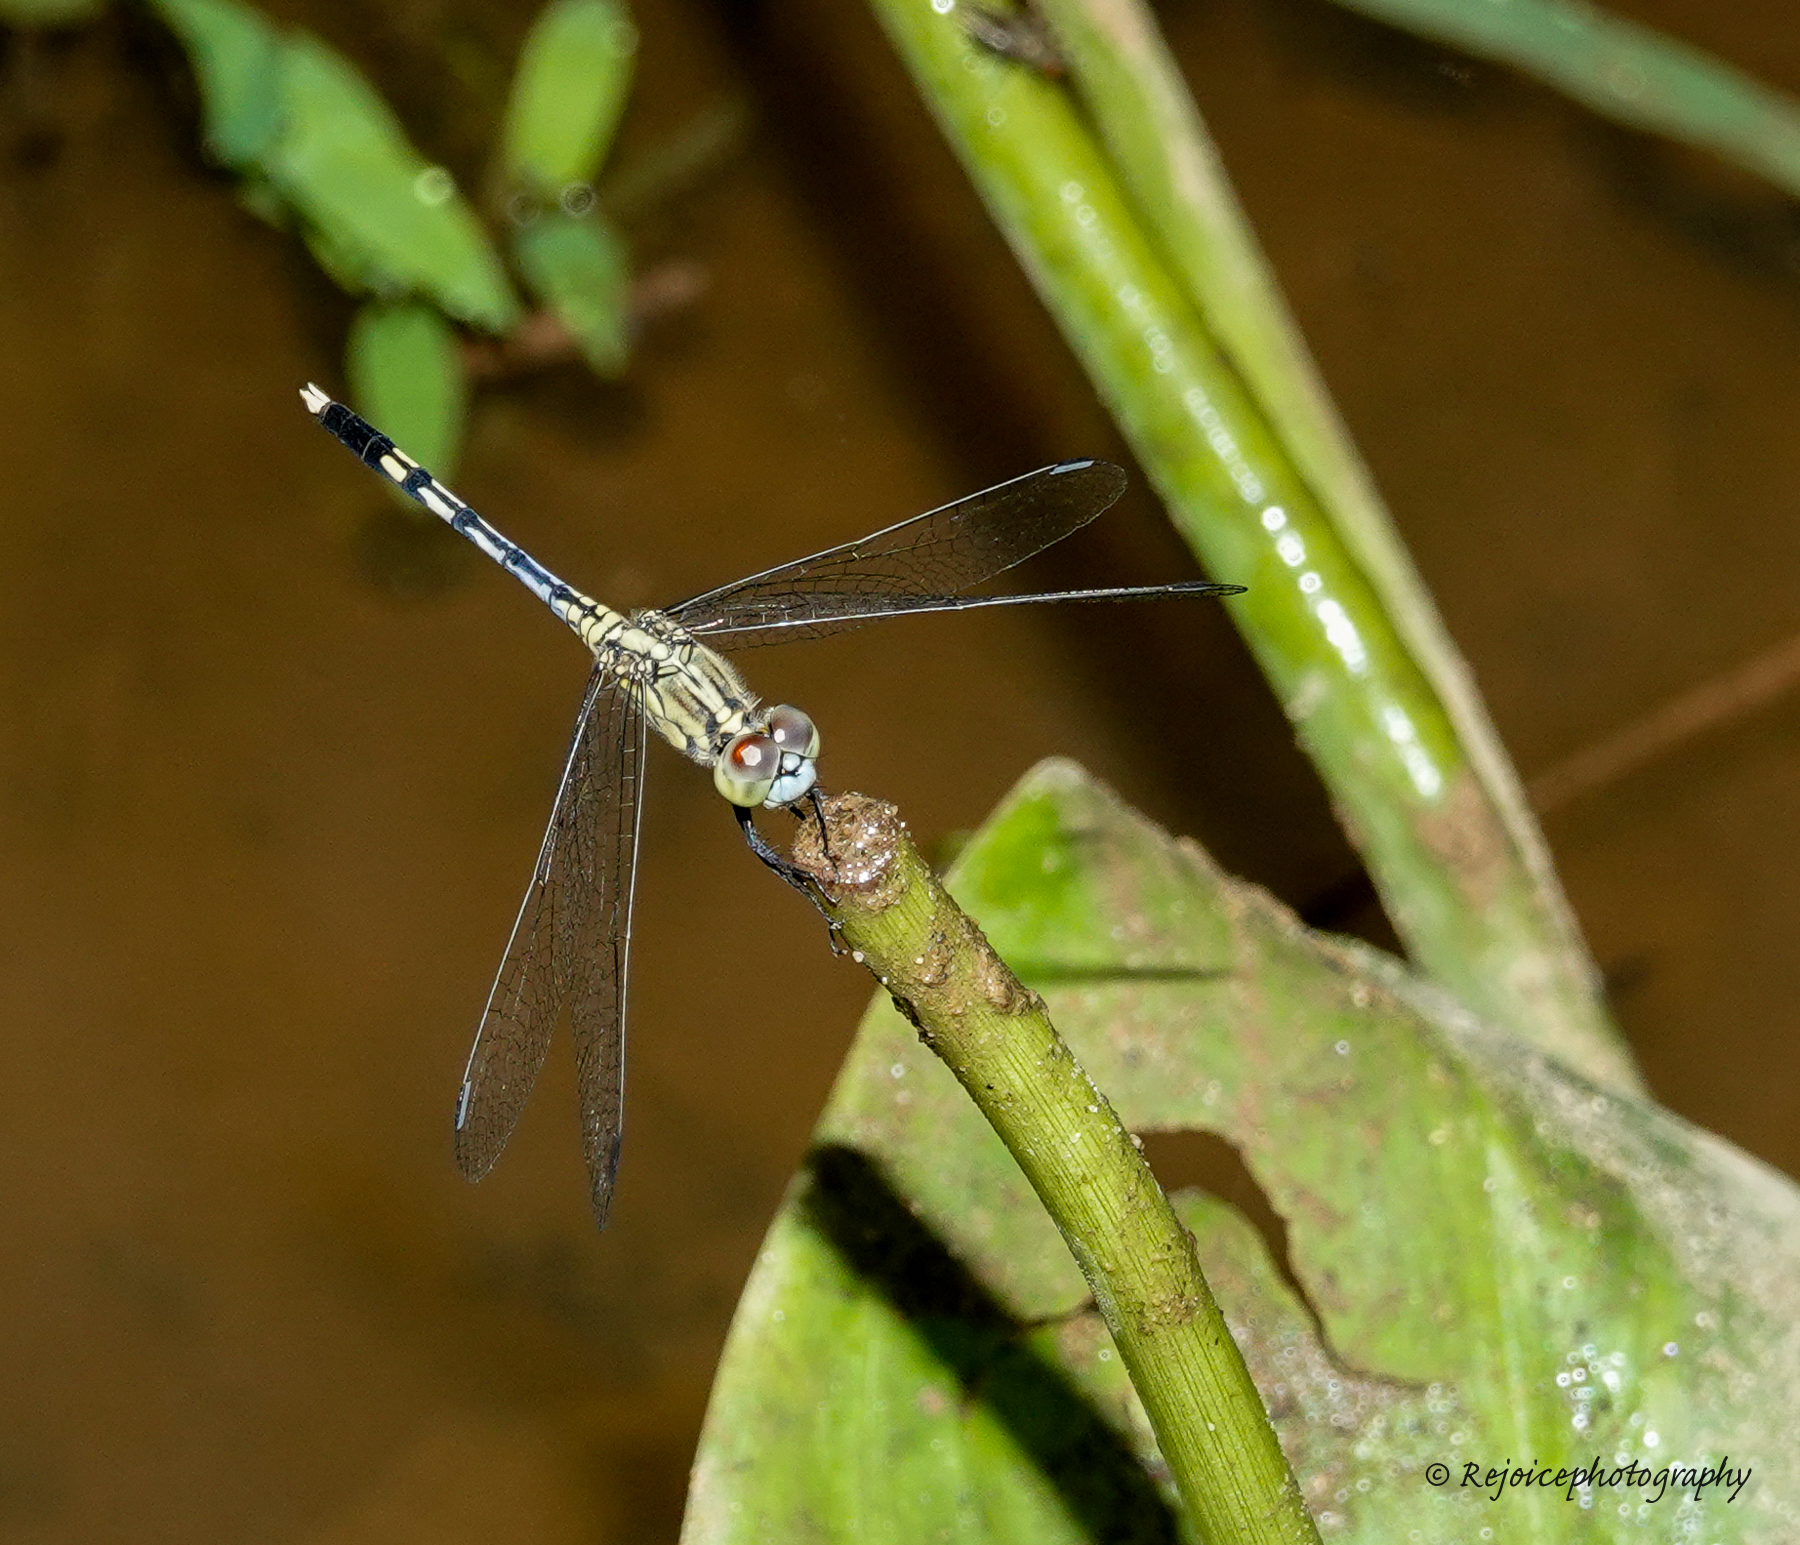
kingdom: Animalia
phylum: Arthropoda
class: Insecta
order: Odonata
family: Libellulidae
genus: Diplacodes
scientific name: Diplacodes trivialis
